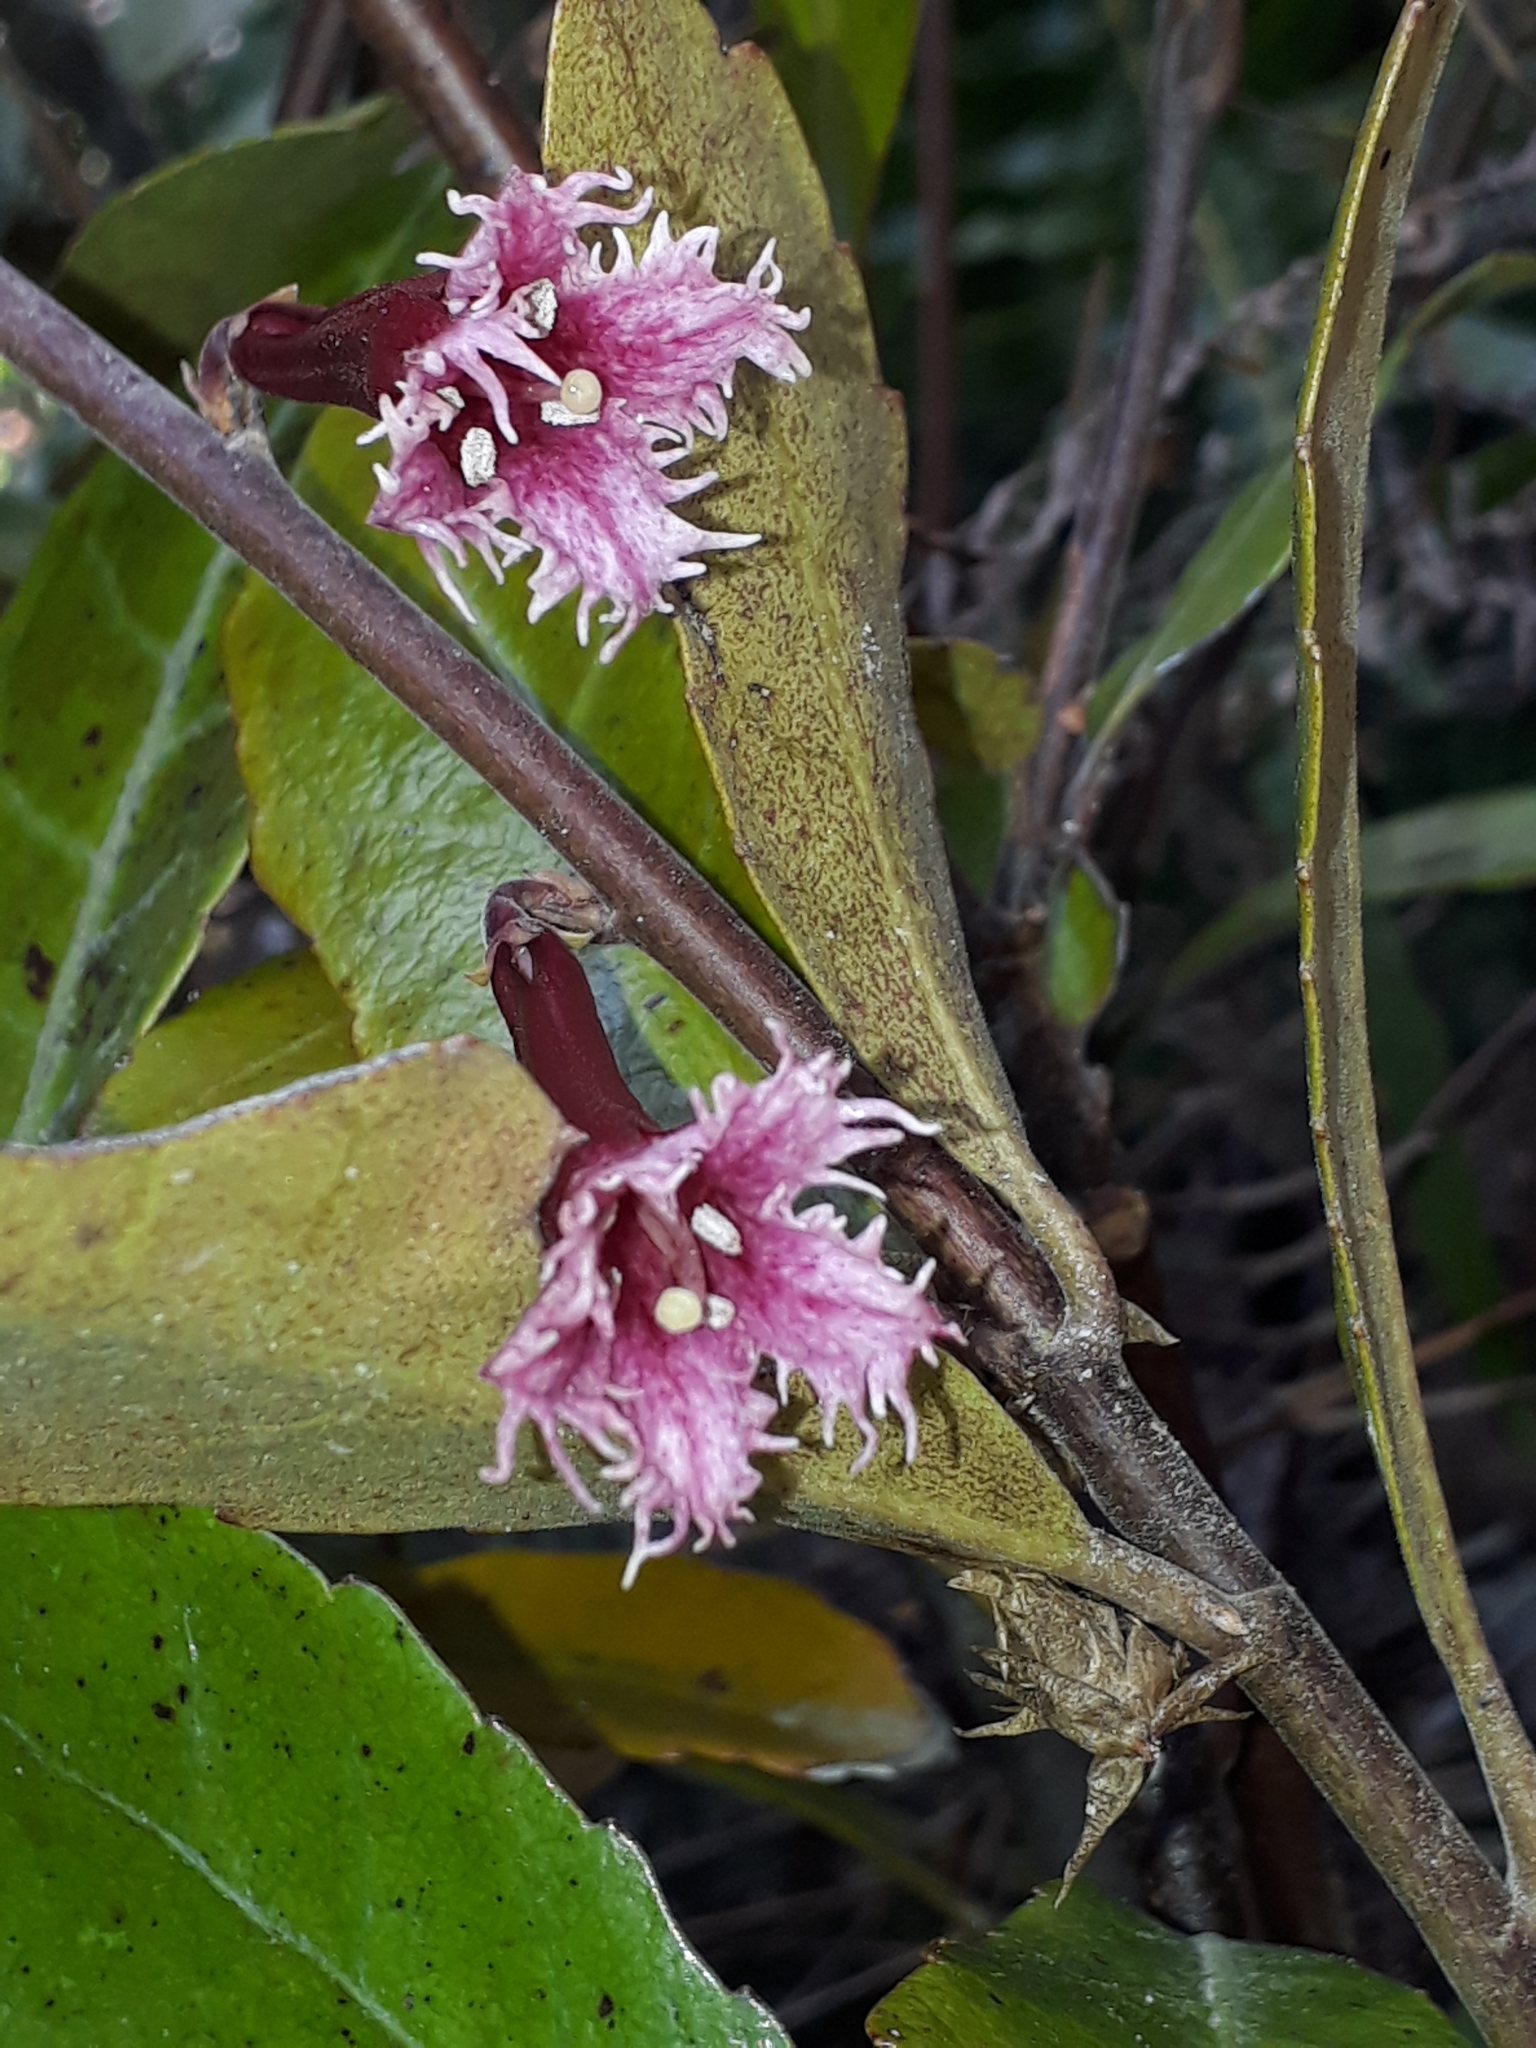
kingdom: Plantae
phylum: Tracheophyta
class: Magnoliopsida
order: Asterales
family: Alseuosmiaceae
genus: Alseuosmia
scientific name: Alseuosmia macrophylla
